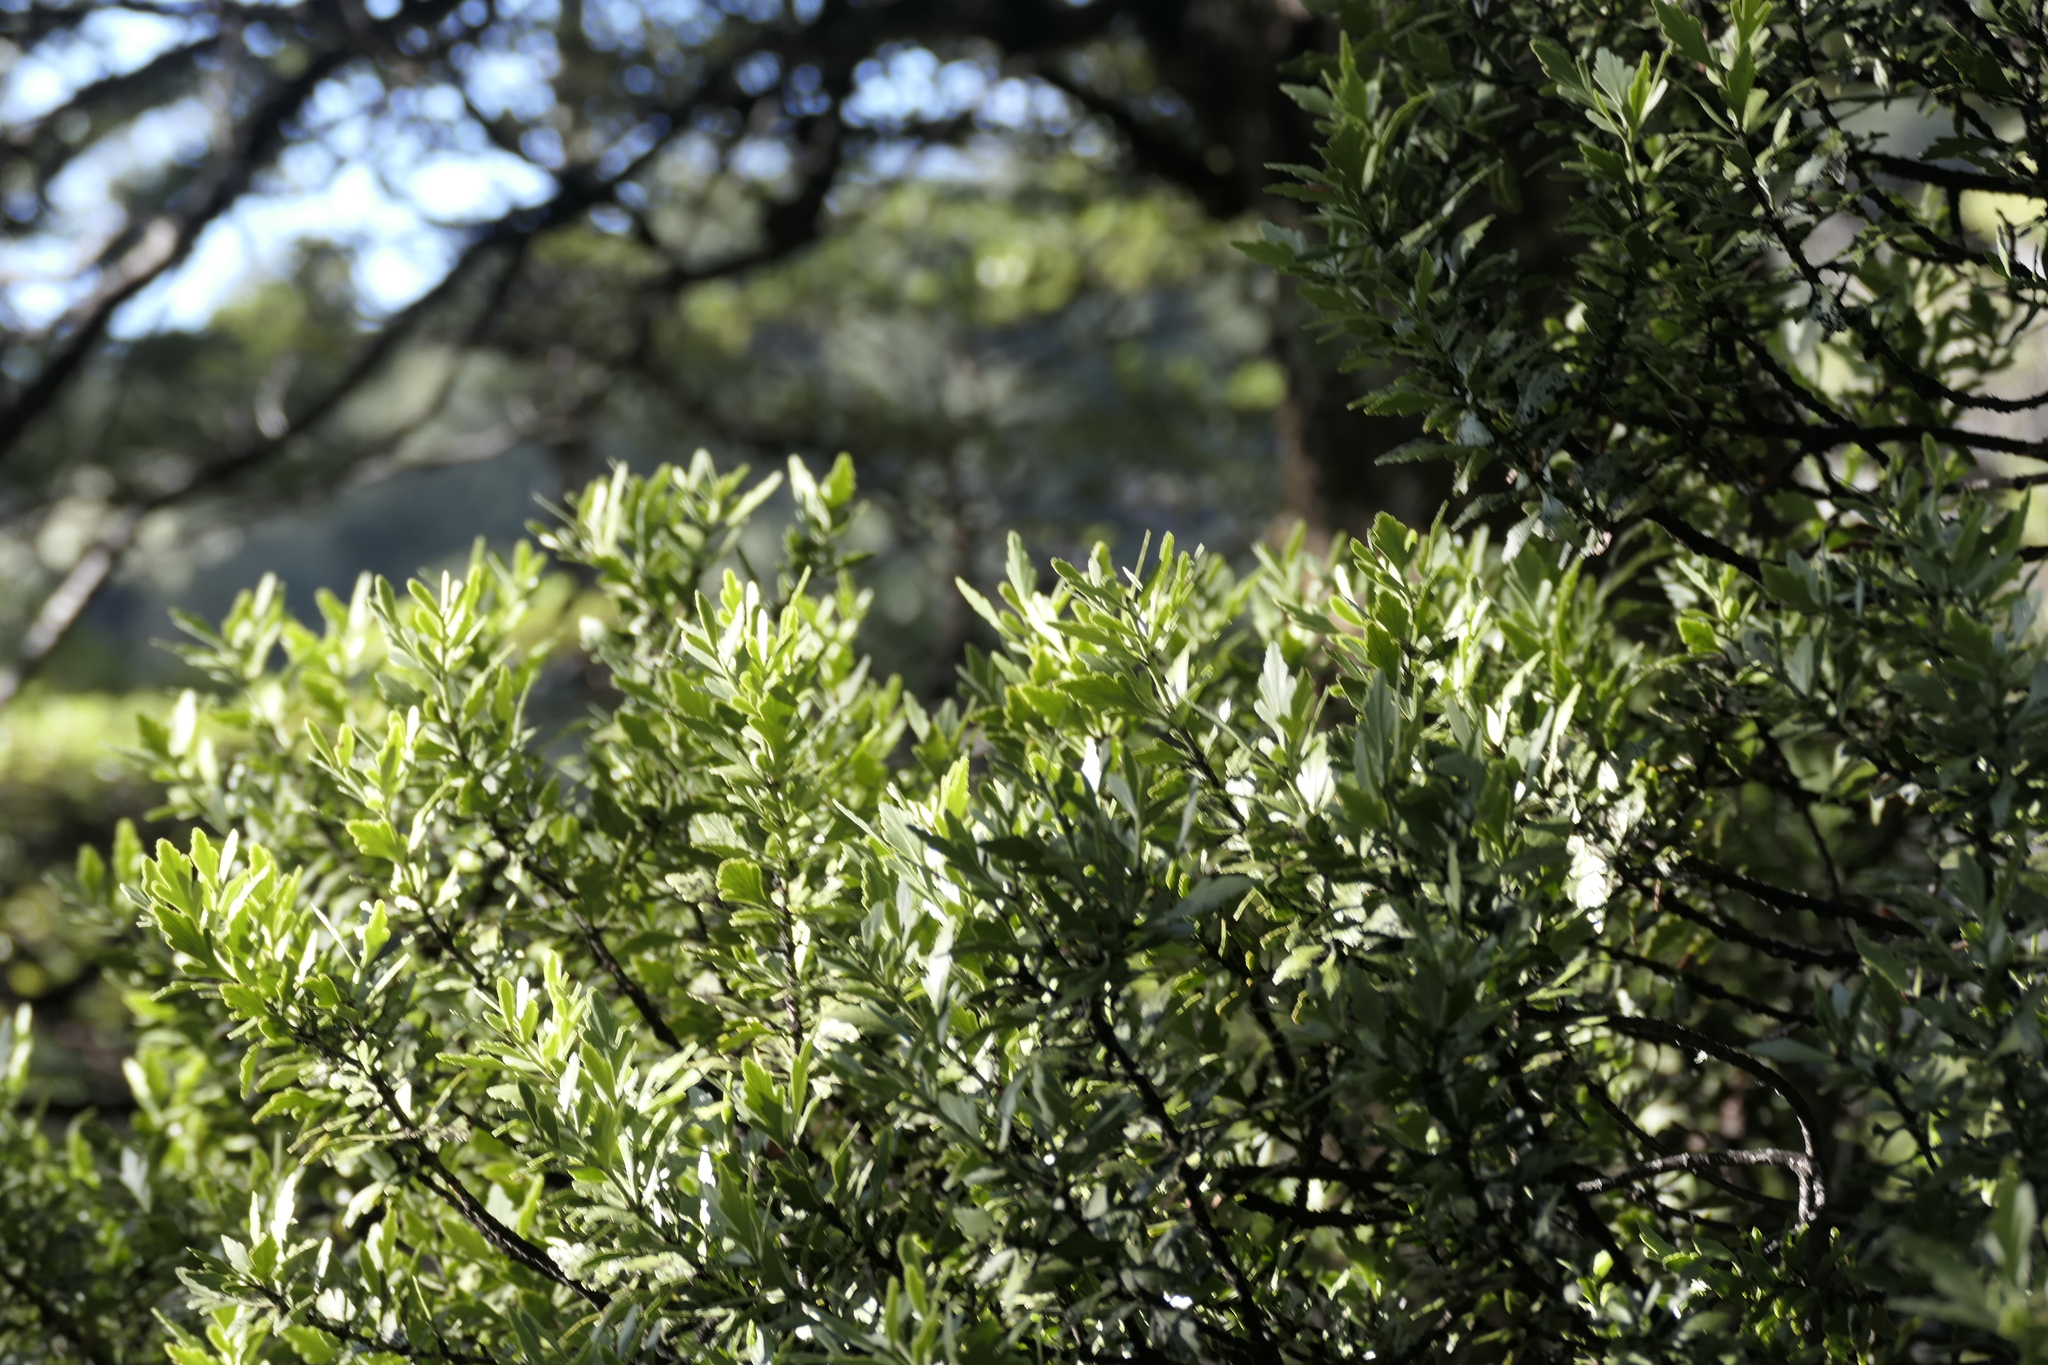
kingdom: Plantae
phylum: Tracheophyta
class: Pinopsida
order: Pinales
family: Phyllocladaceae
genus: Phyllocladus
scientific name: Phyllocladus trichomanoides
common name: Celery pine
